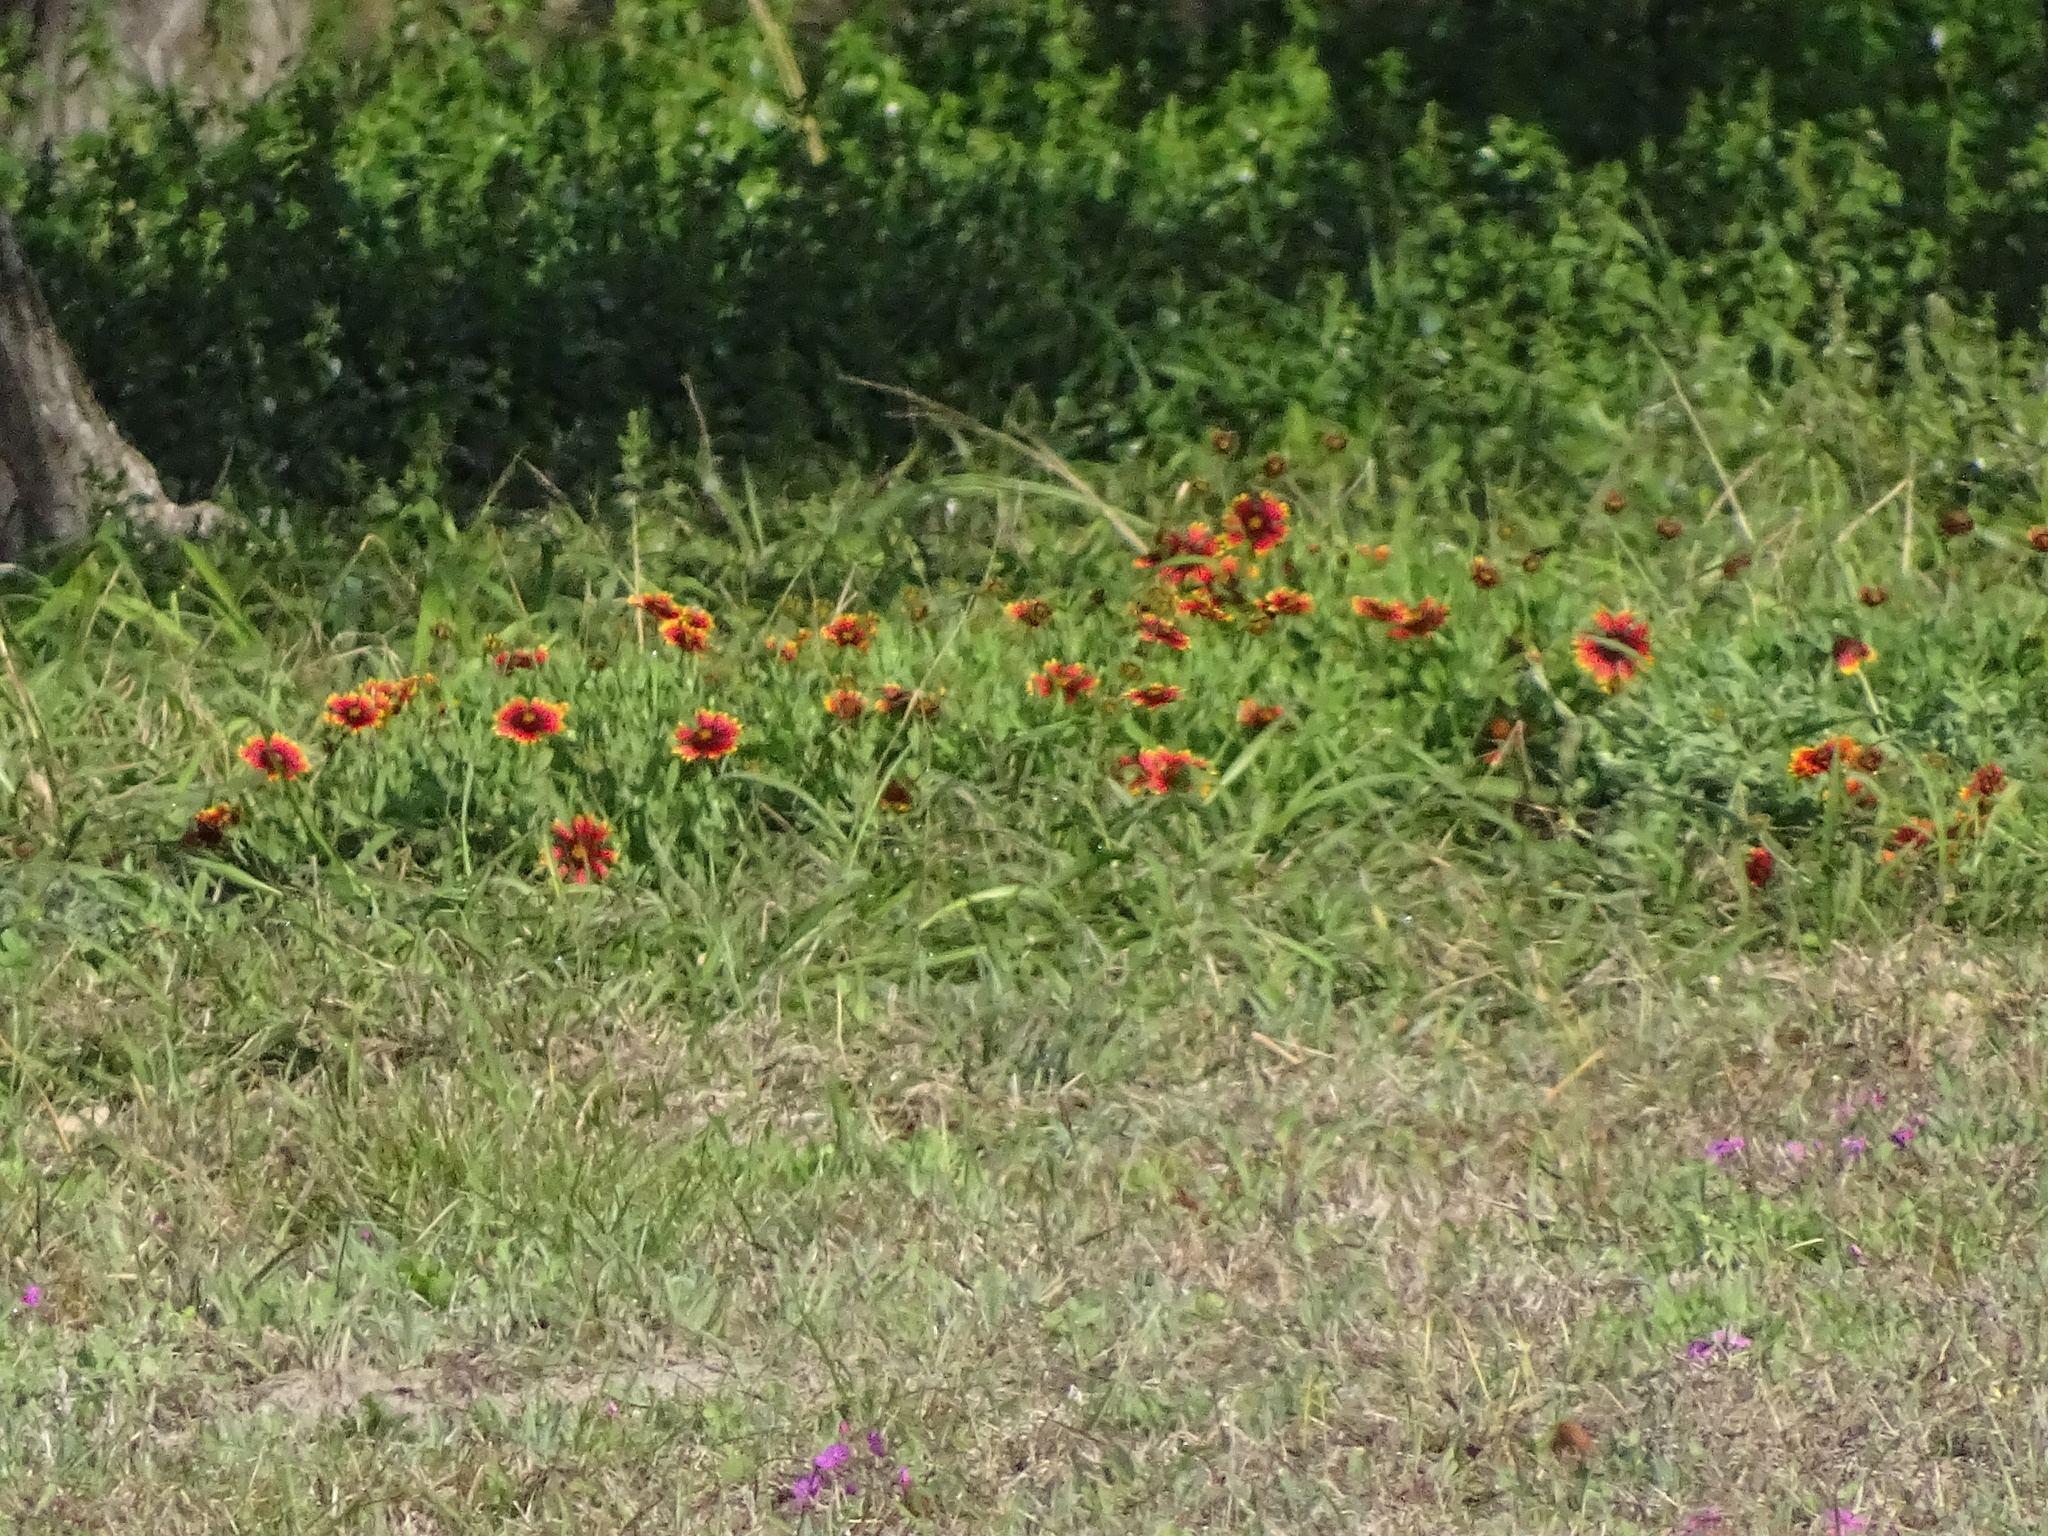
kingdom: Plantae
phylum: Tracheophyta
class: Magnoliopsida
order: Asterales
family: Asteraceae
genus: Gaillardia
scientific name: Gaillardia pulchella
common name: Firewheel
